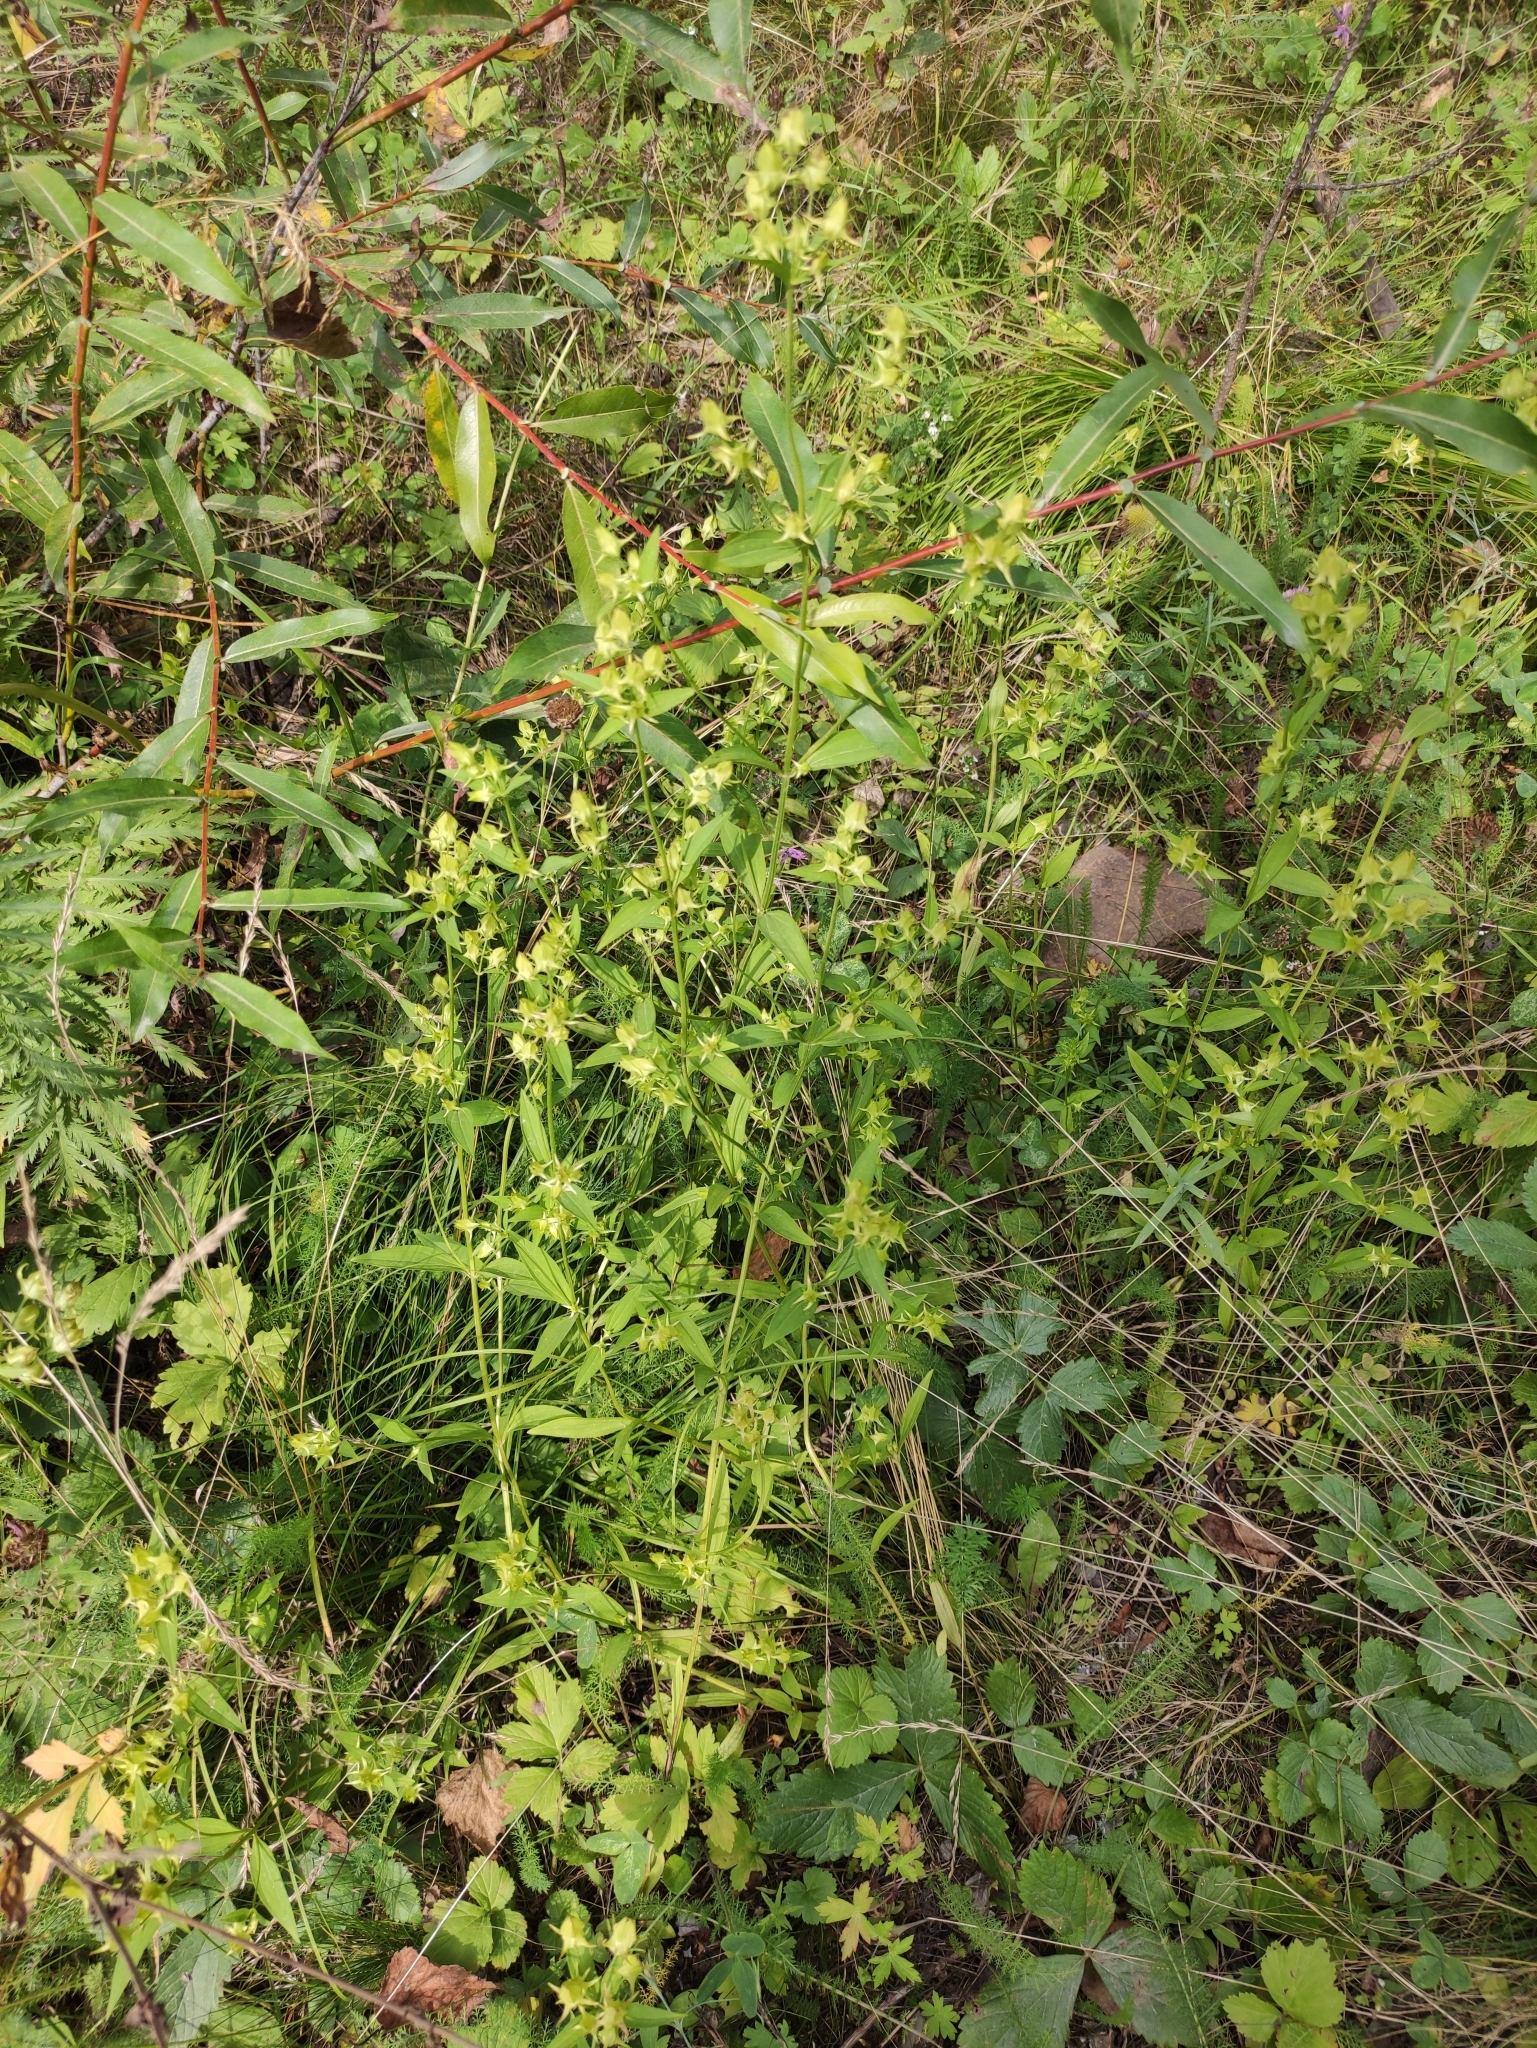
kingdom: Plantae
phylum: Tracheophyta
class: Magnoliopsida
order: Gentianales
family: Gentianaceae
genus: Halenia
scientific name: Halenia corniculata
